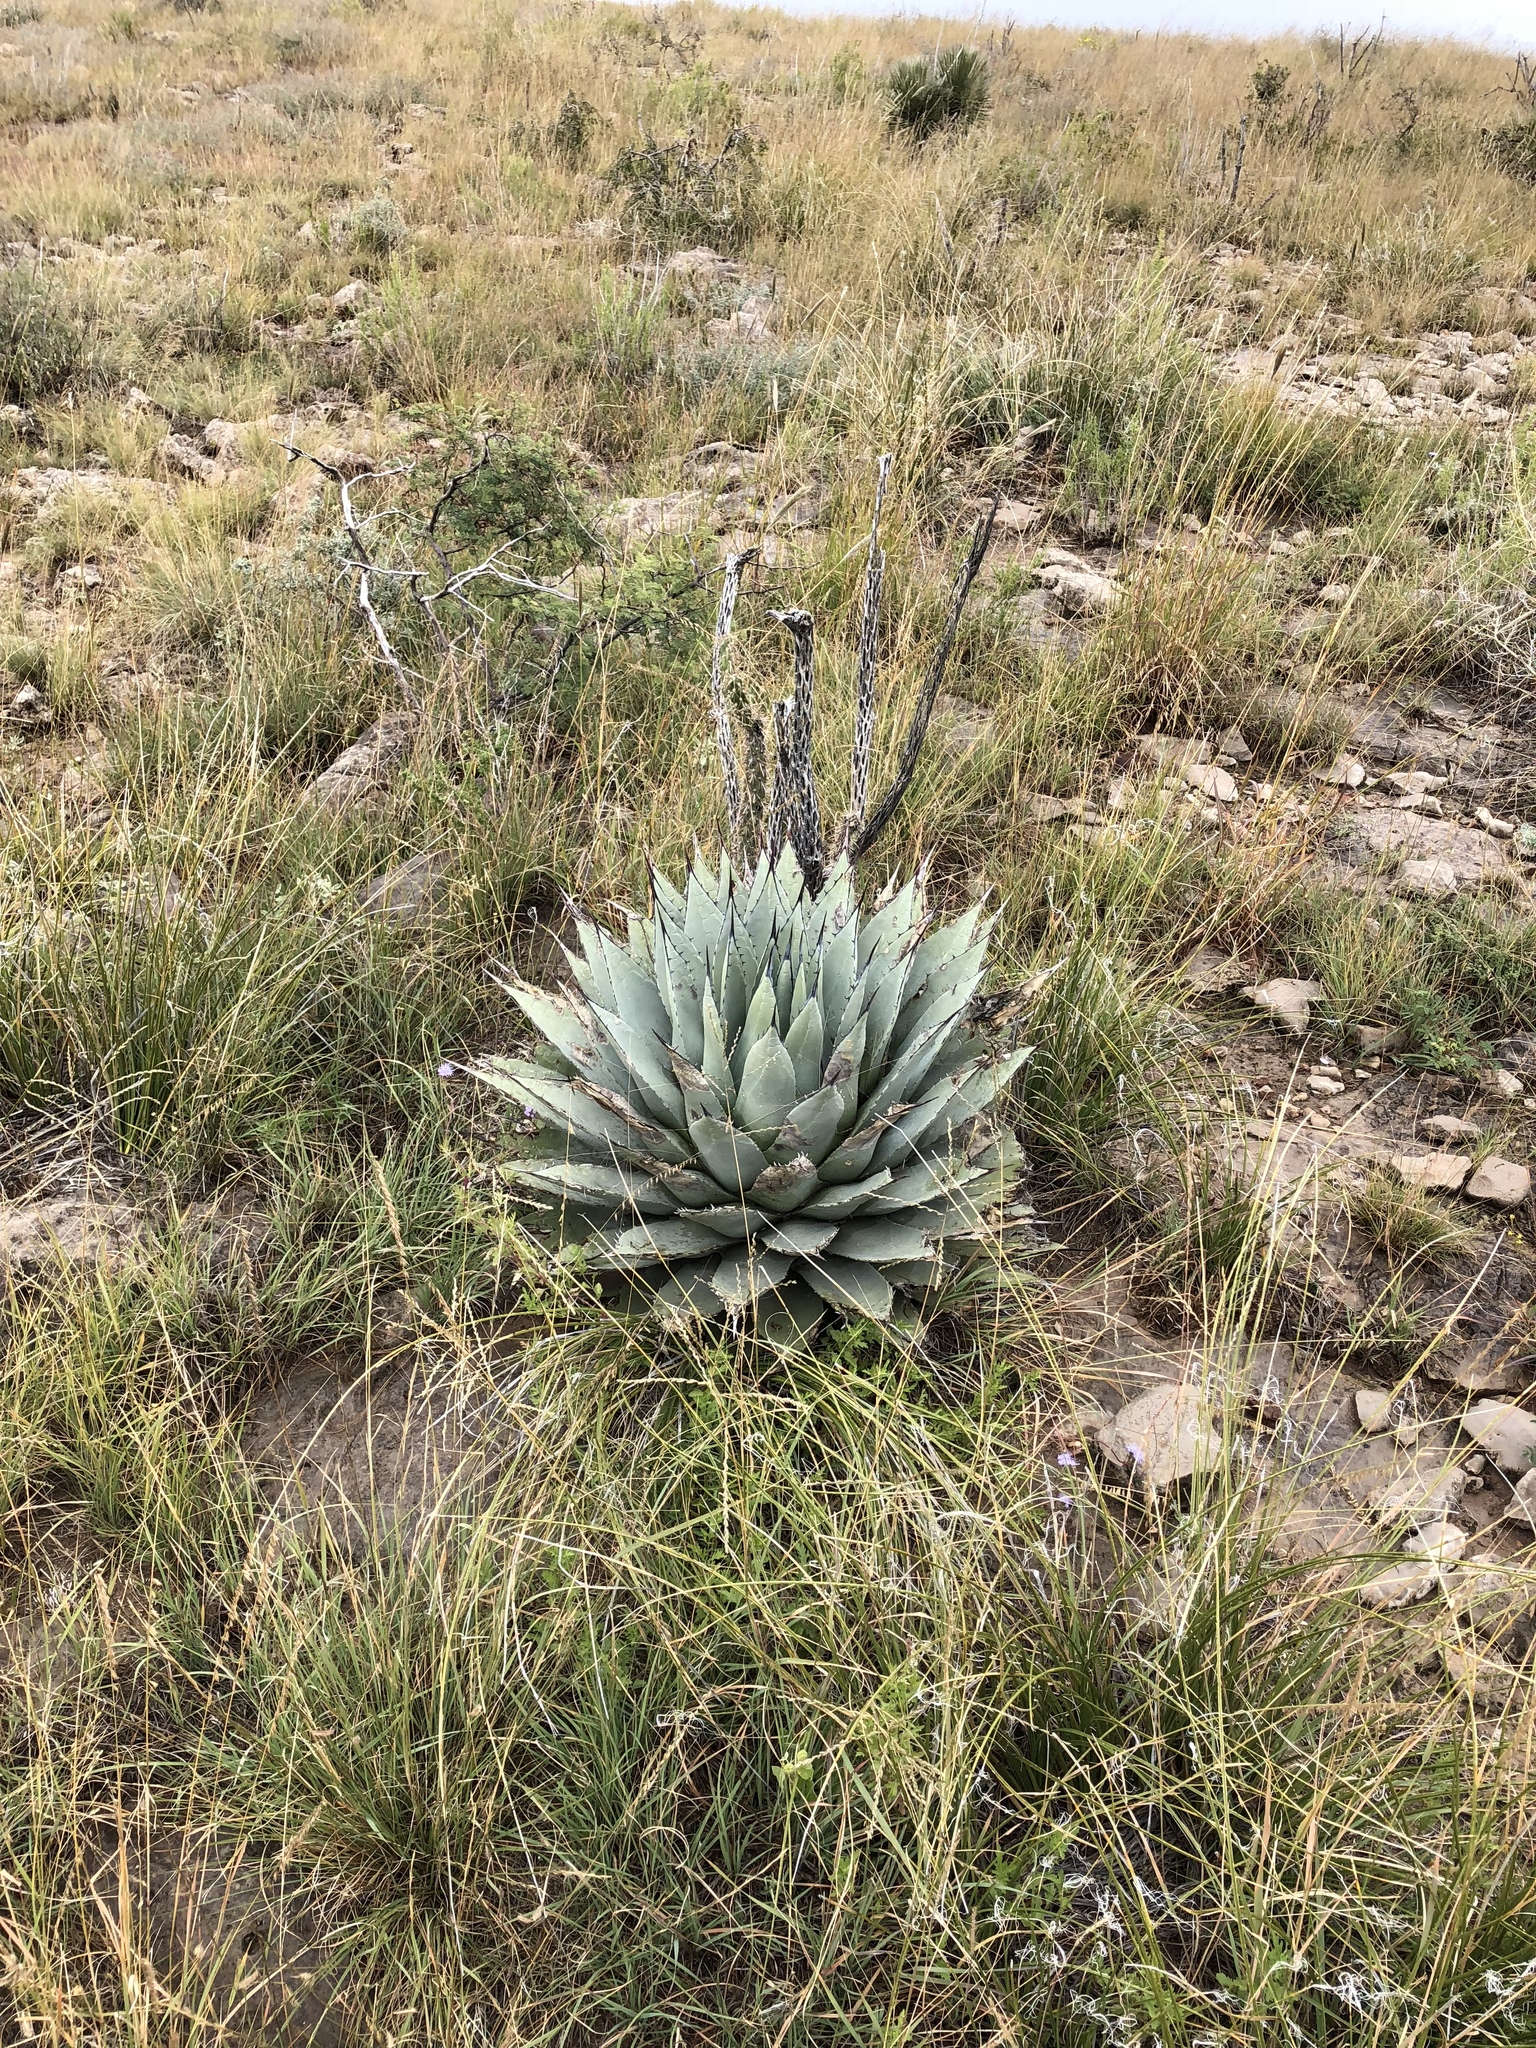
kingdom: Plantae
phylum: Tracheophyta
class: Liliopsida
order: Asparagales
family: Asparagaceae
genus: Agave
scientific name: Agave parryi
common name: Parry's agave
